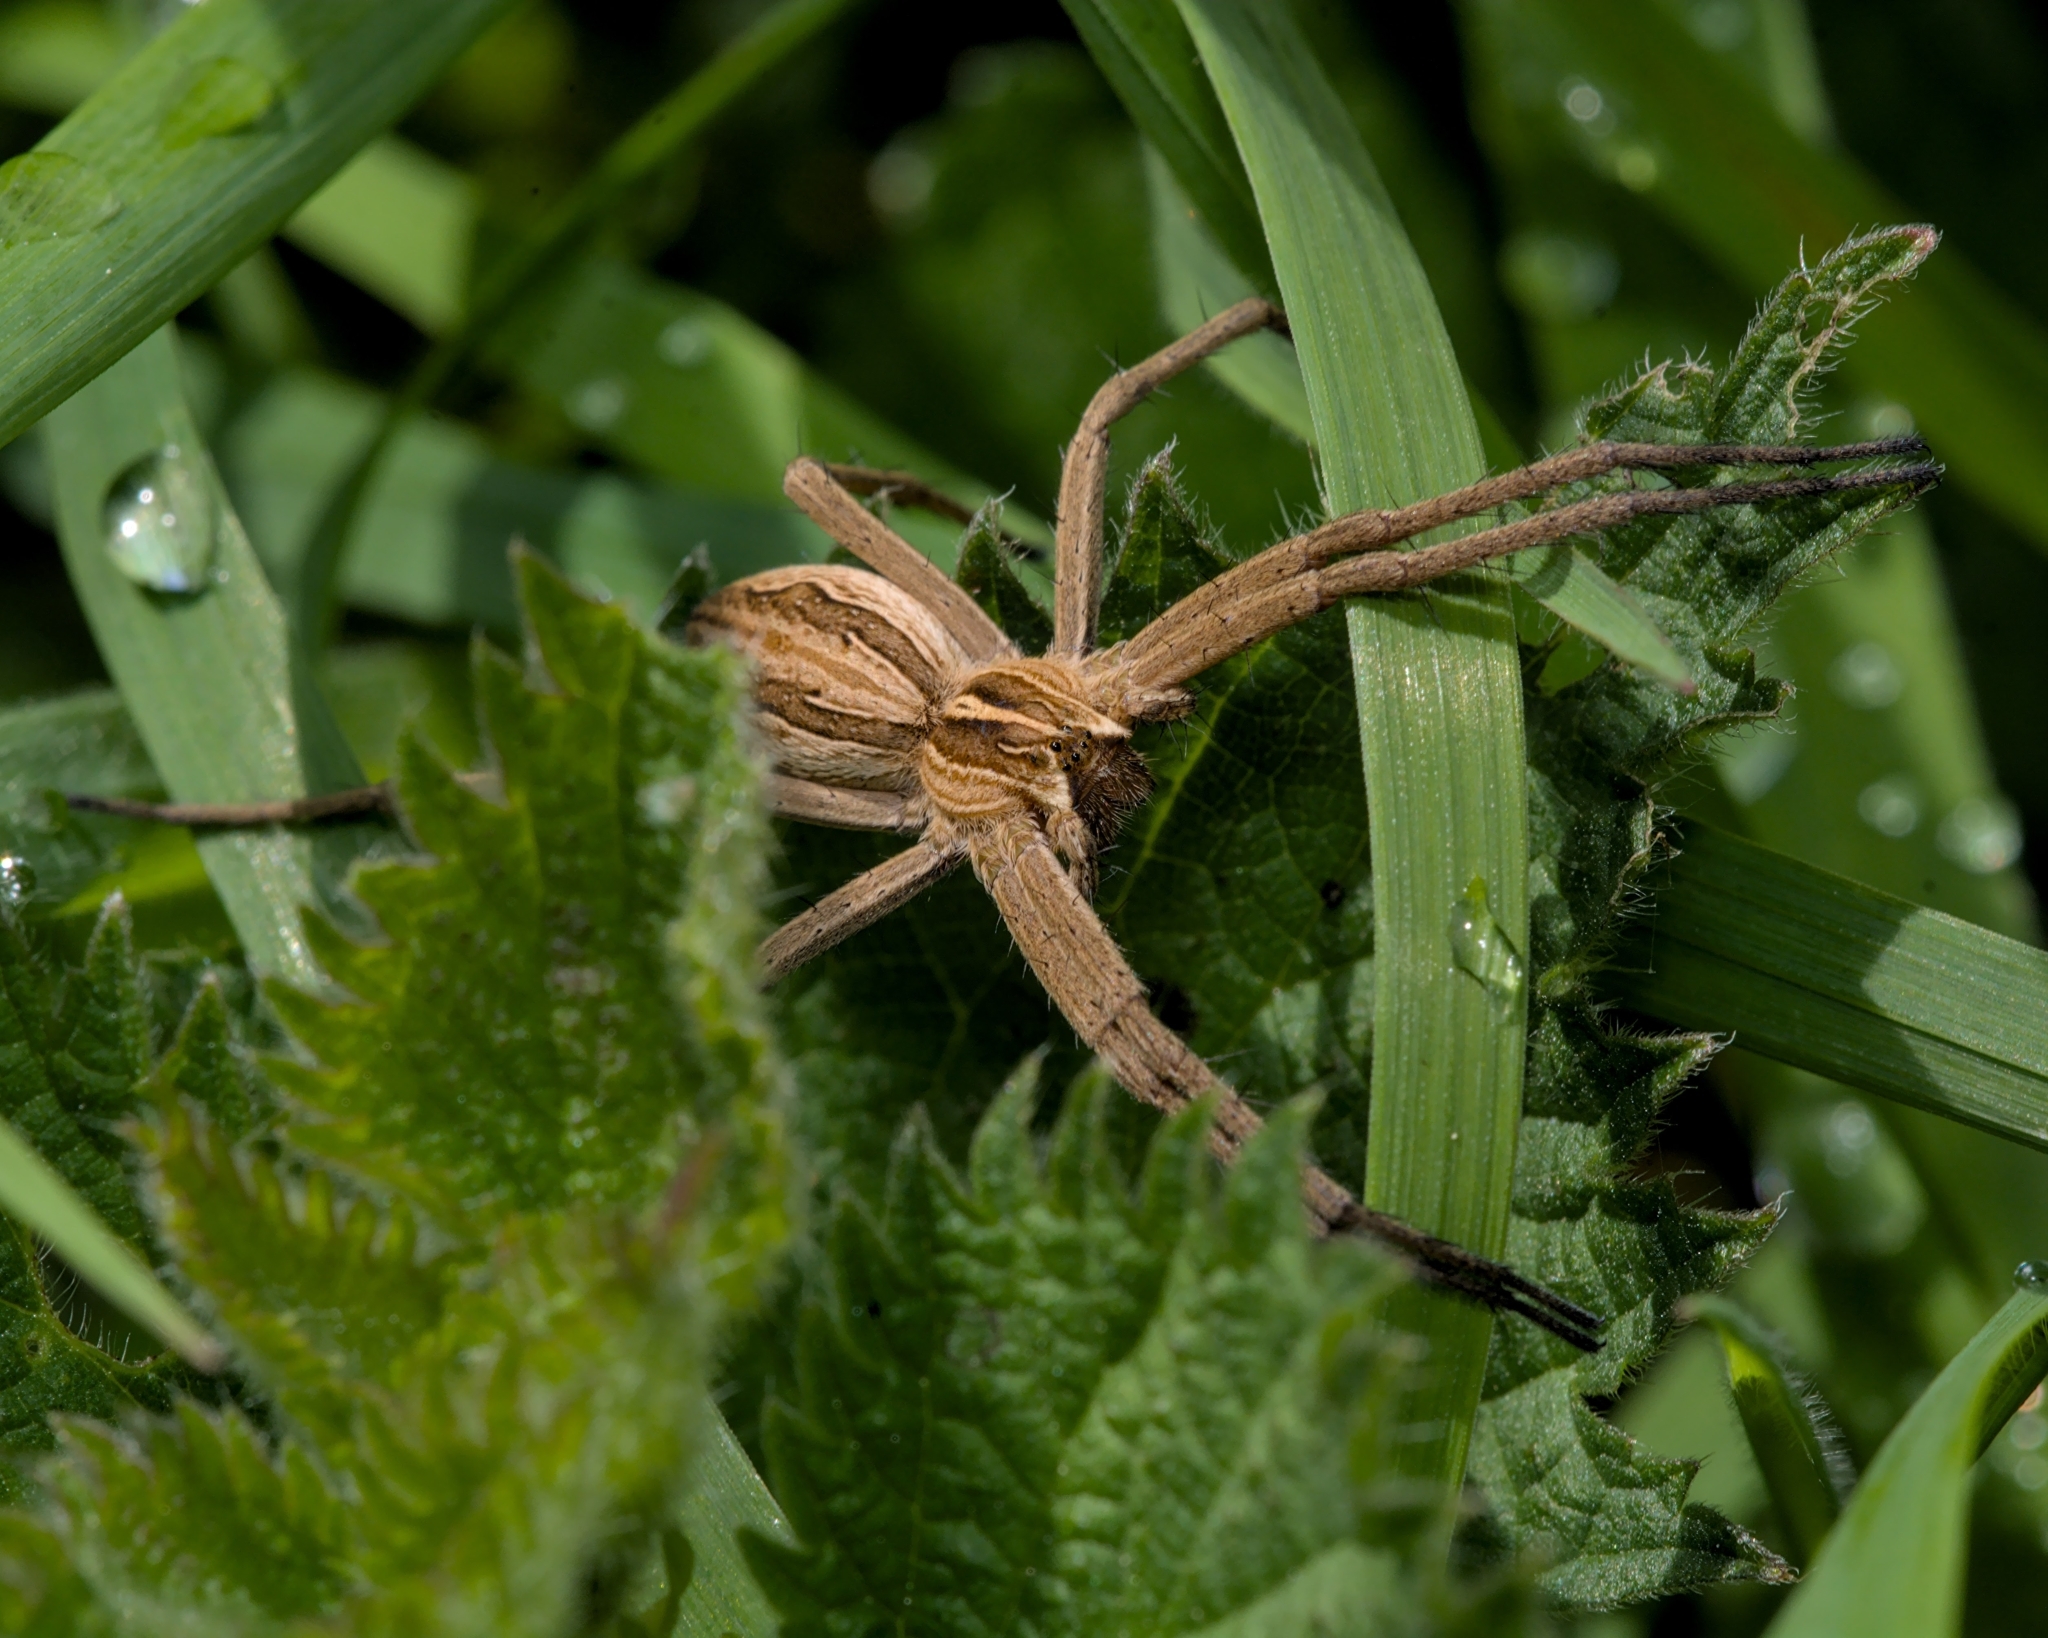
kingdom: Animalia
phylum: Arthropoda
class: Arachnida
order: Araneae
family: Pisauridae
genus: Pisaura
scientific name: Pisaura mirabilis
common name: Tent spider
